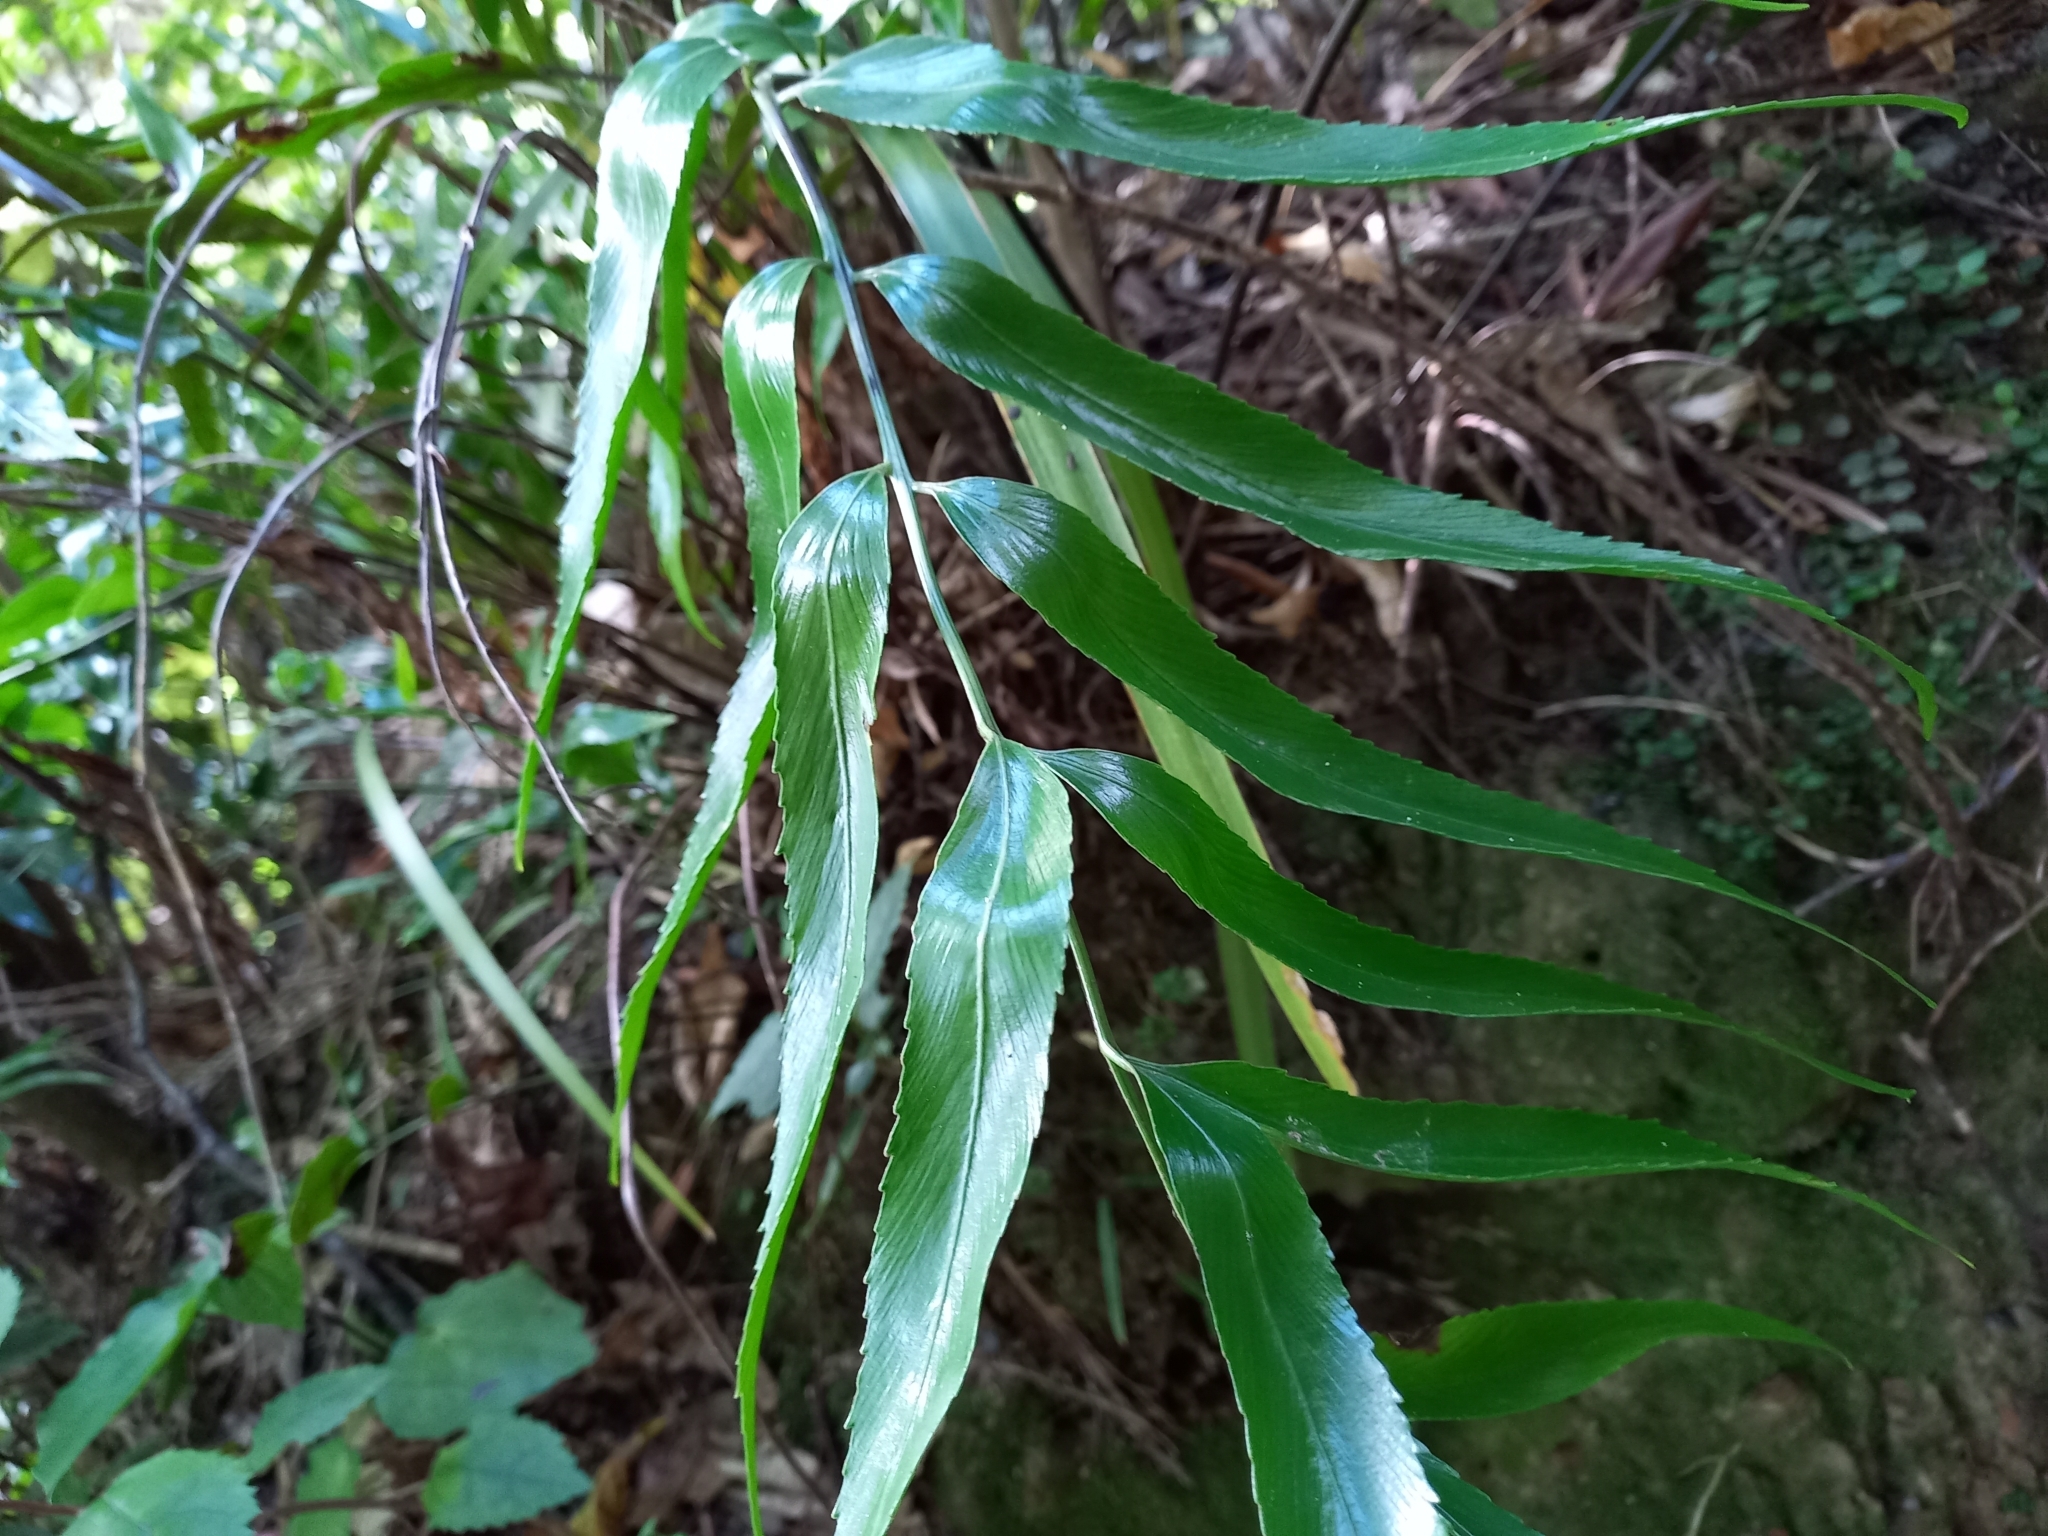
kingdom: Plantae
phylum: Tracheophyta
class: Polypodiopsida
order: Polypodiales
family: Aspleniaceae
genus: Asplenium
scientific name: Asplenium oblongifolium
